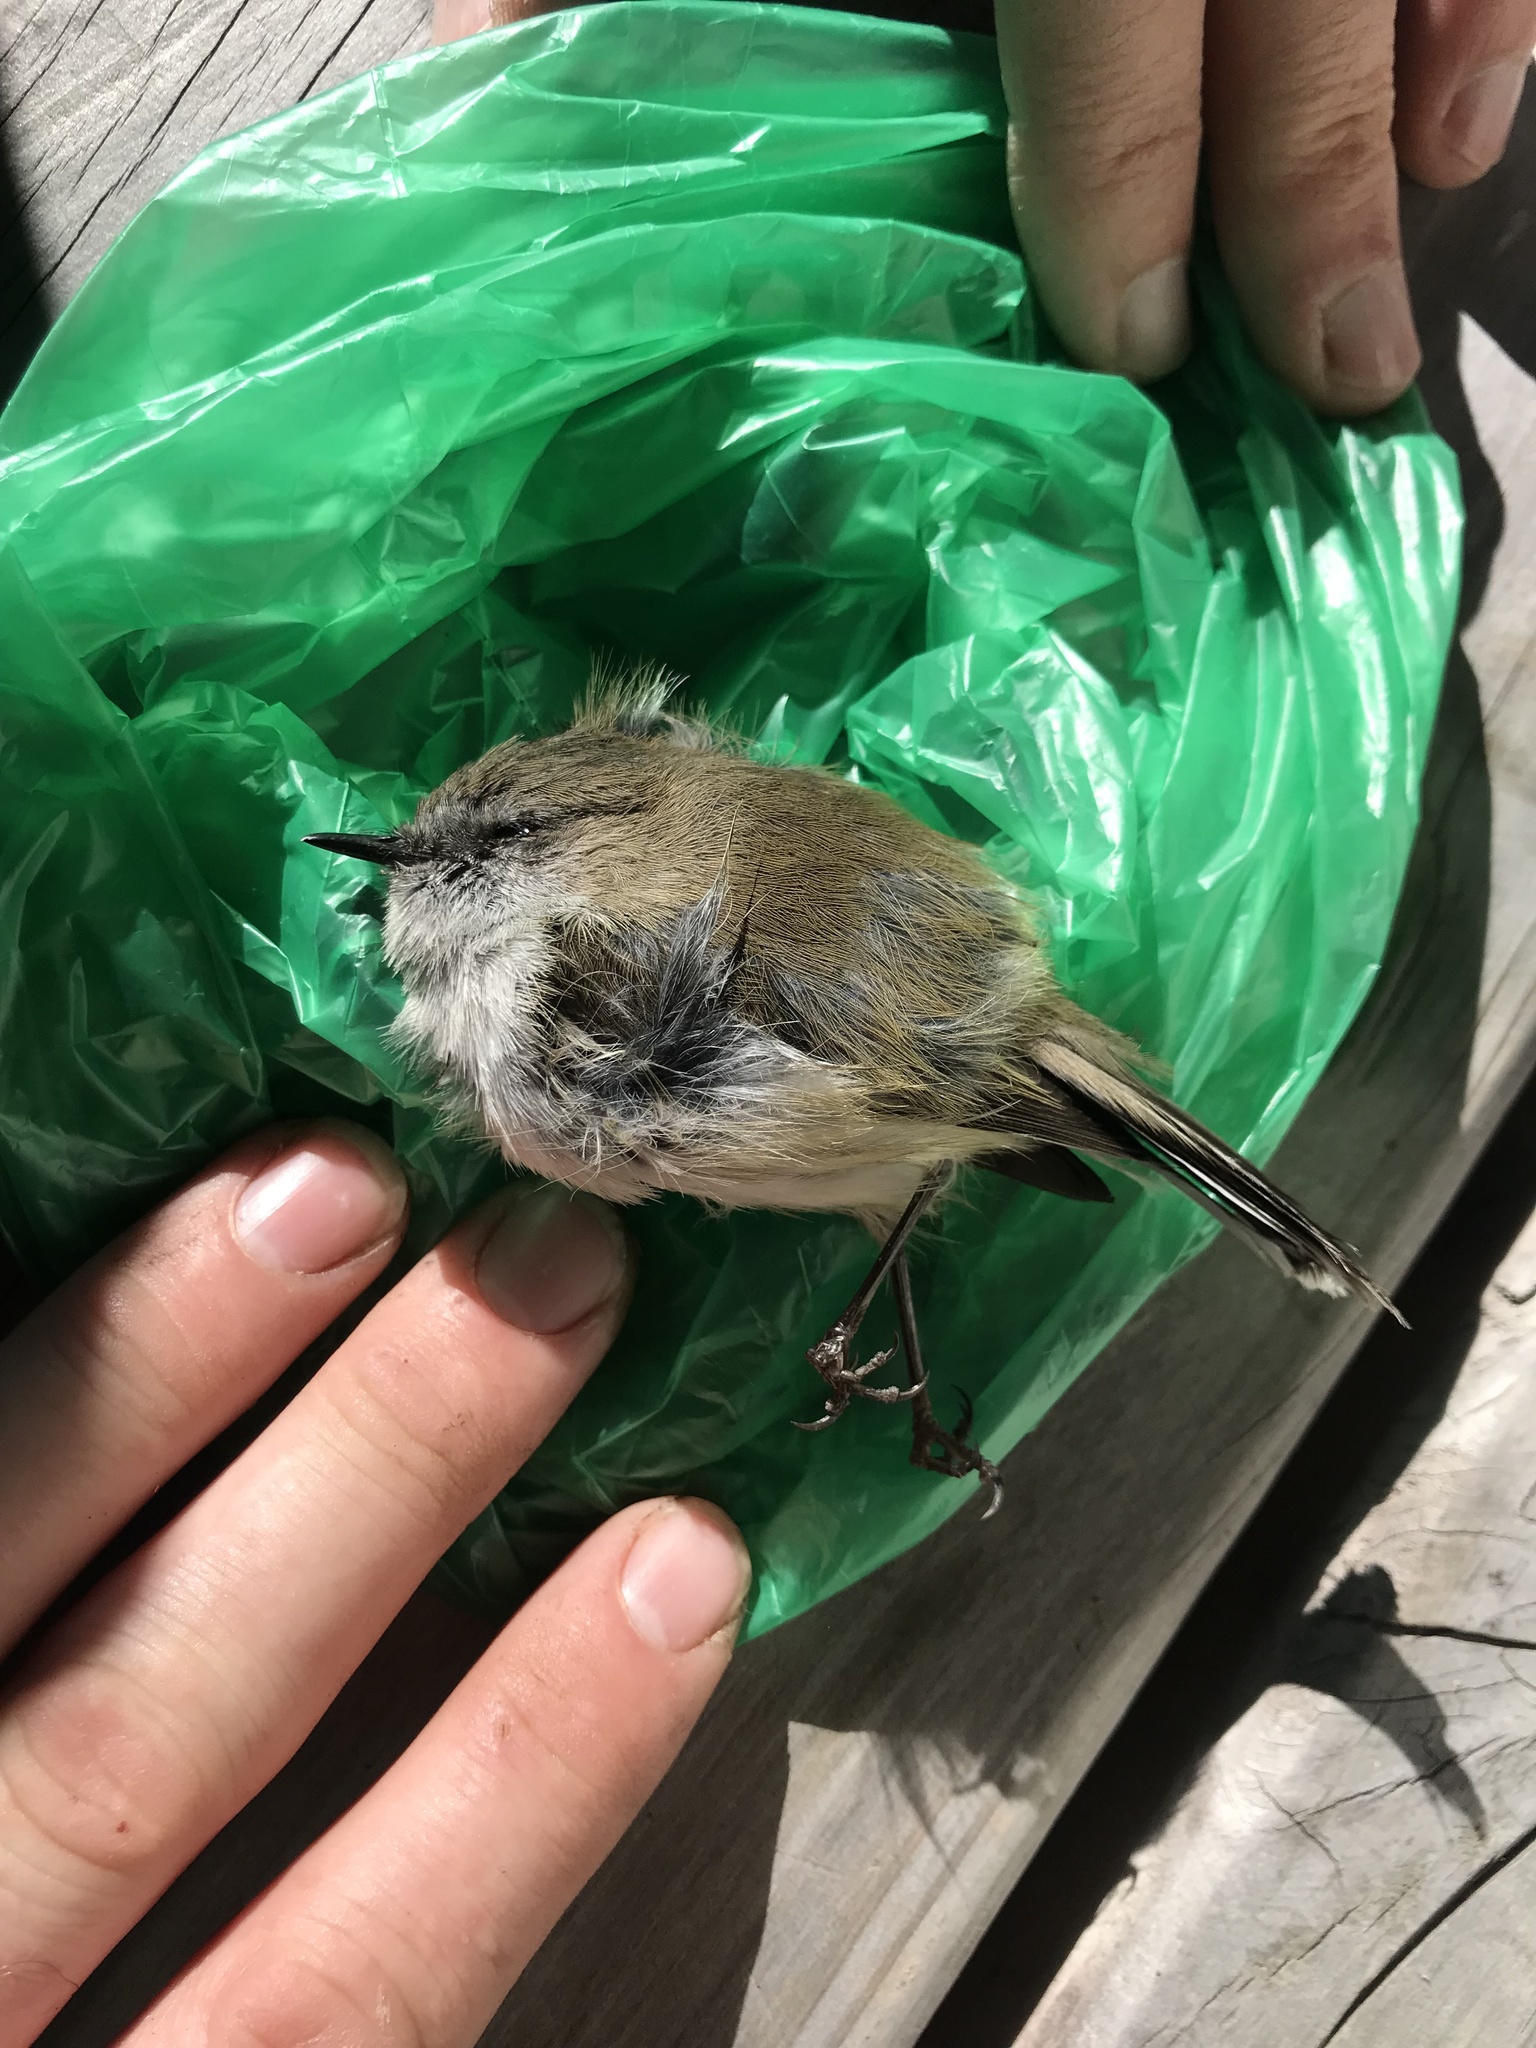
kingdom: Animalia
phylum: Chordata
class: Aves
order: Passeriformes
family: Acanthizidae
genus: Gerygone
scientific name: Gerygone igata
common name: Grey gerygone
